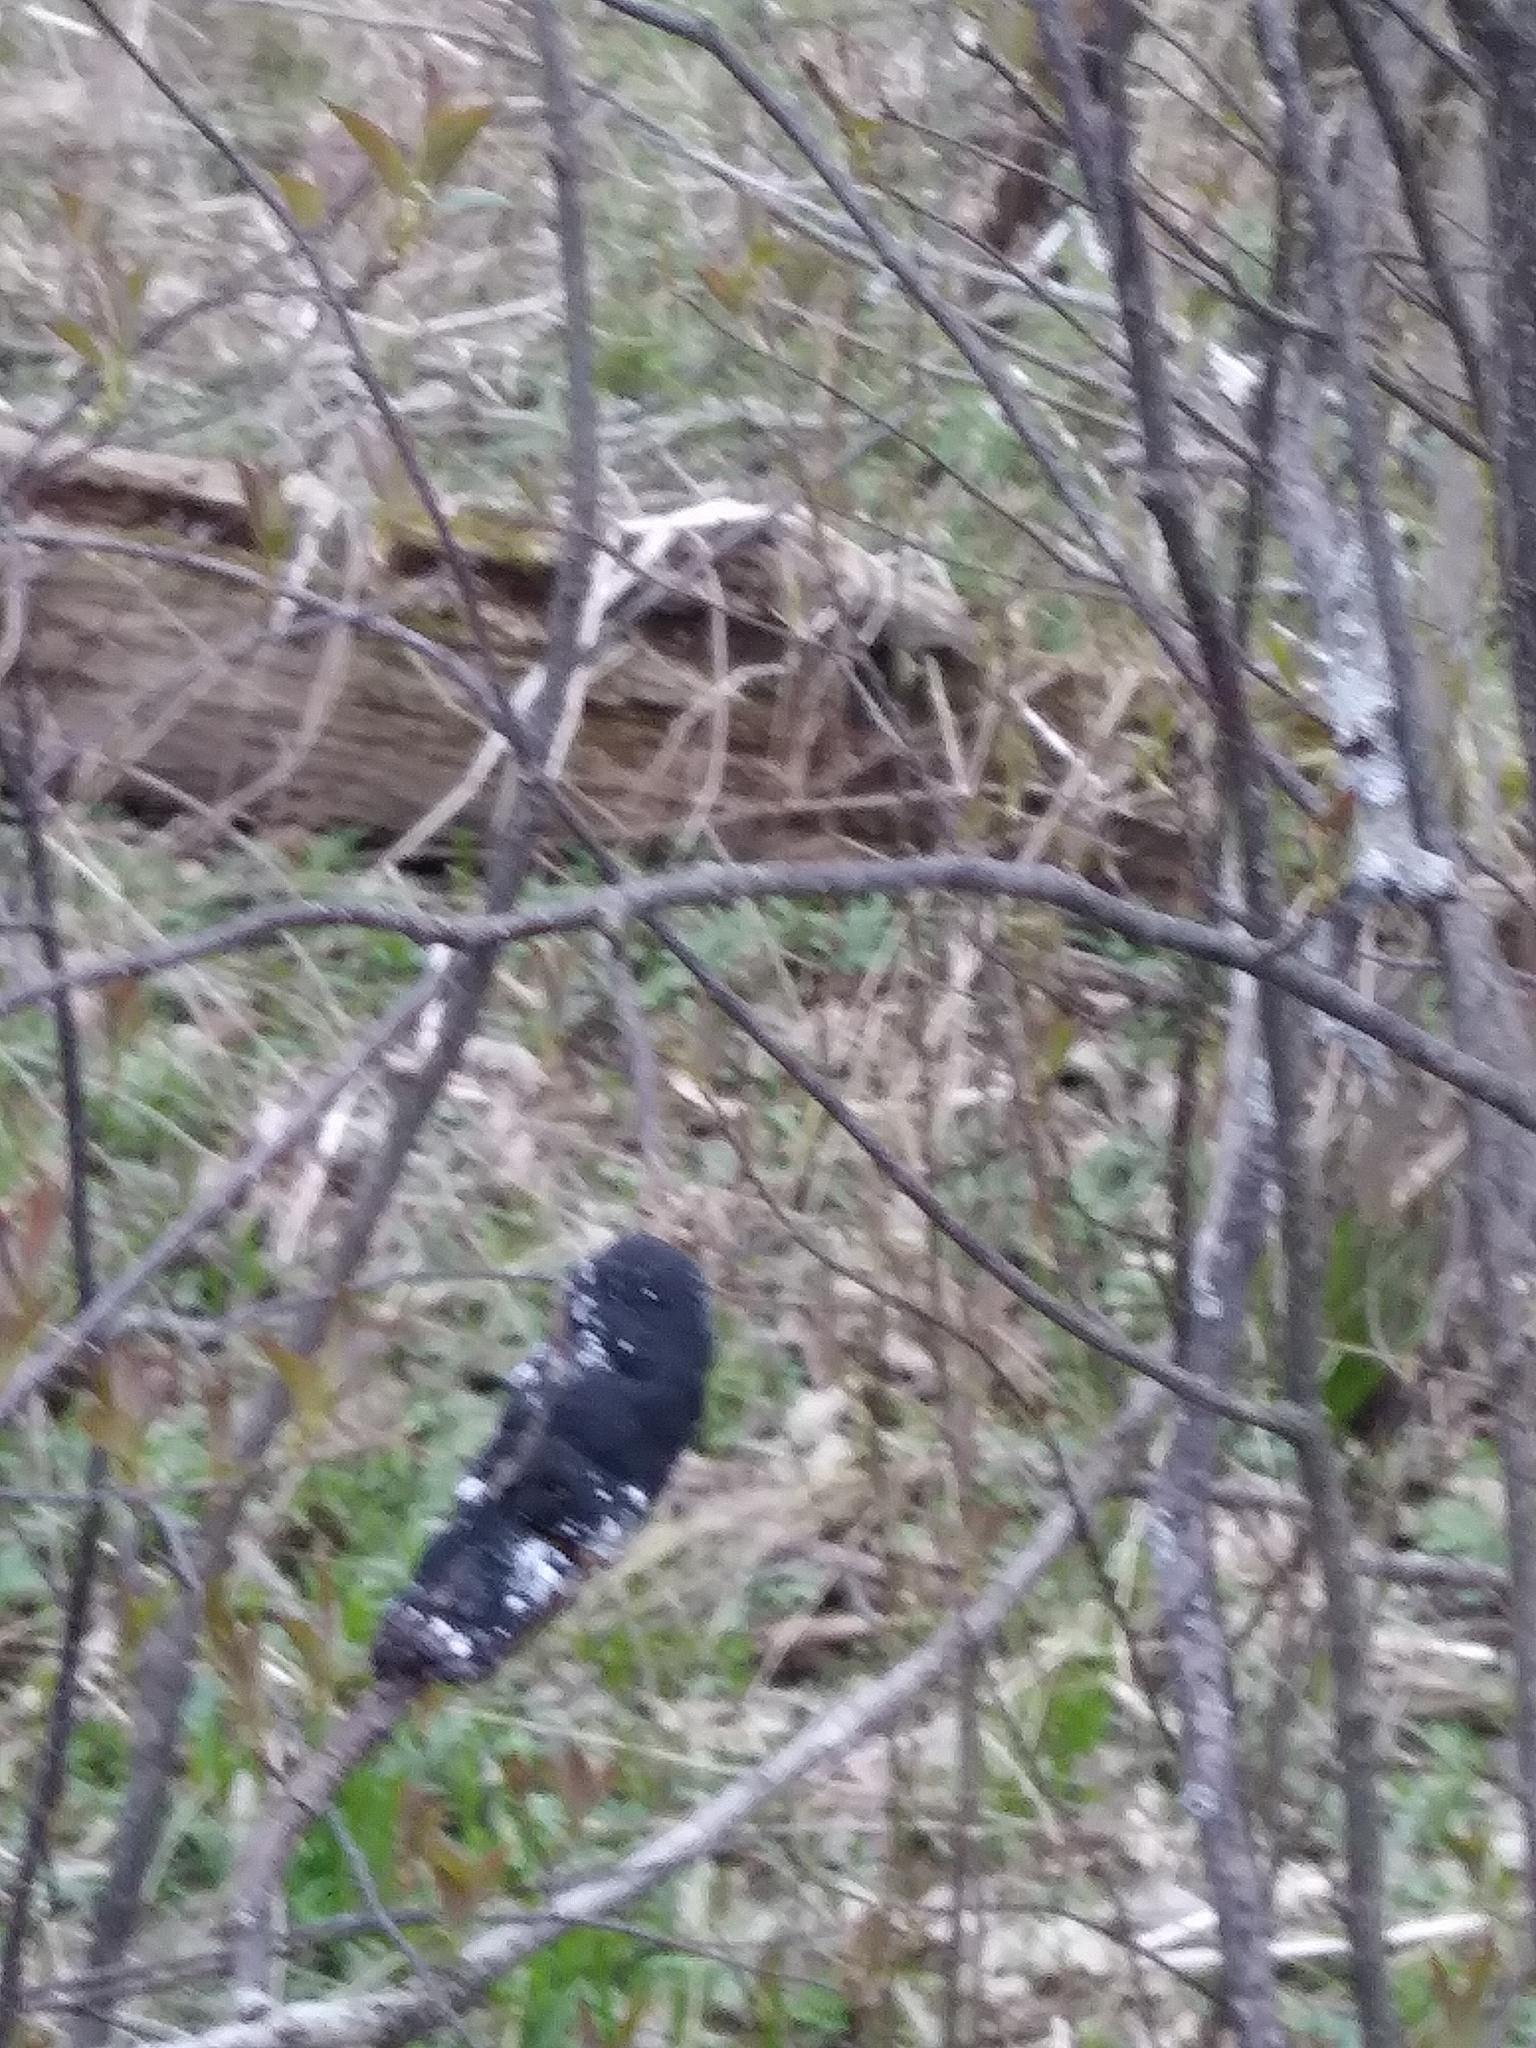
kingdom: Fungi
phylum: Ascomycota
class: Dothideomycetes
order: Venturiales
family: Venturiaceae
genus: Apiosporina
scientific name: Apiosporina morbosa
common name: Black knot
